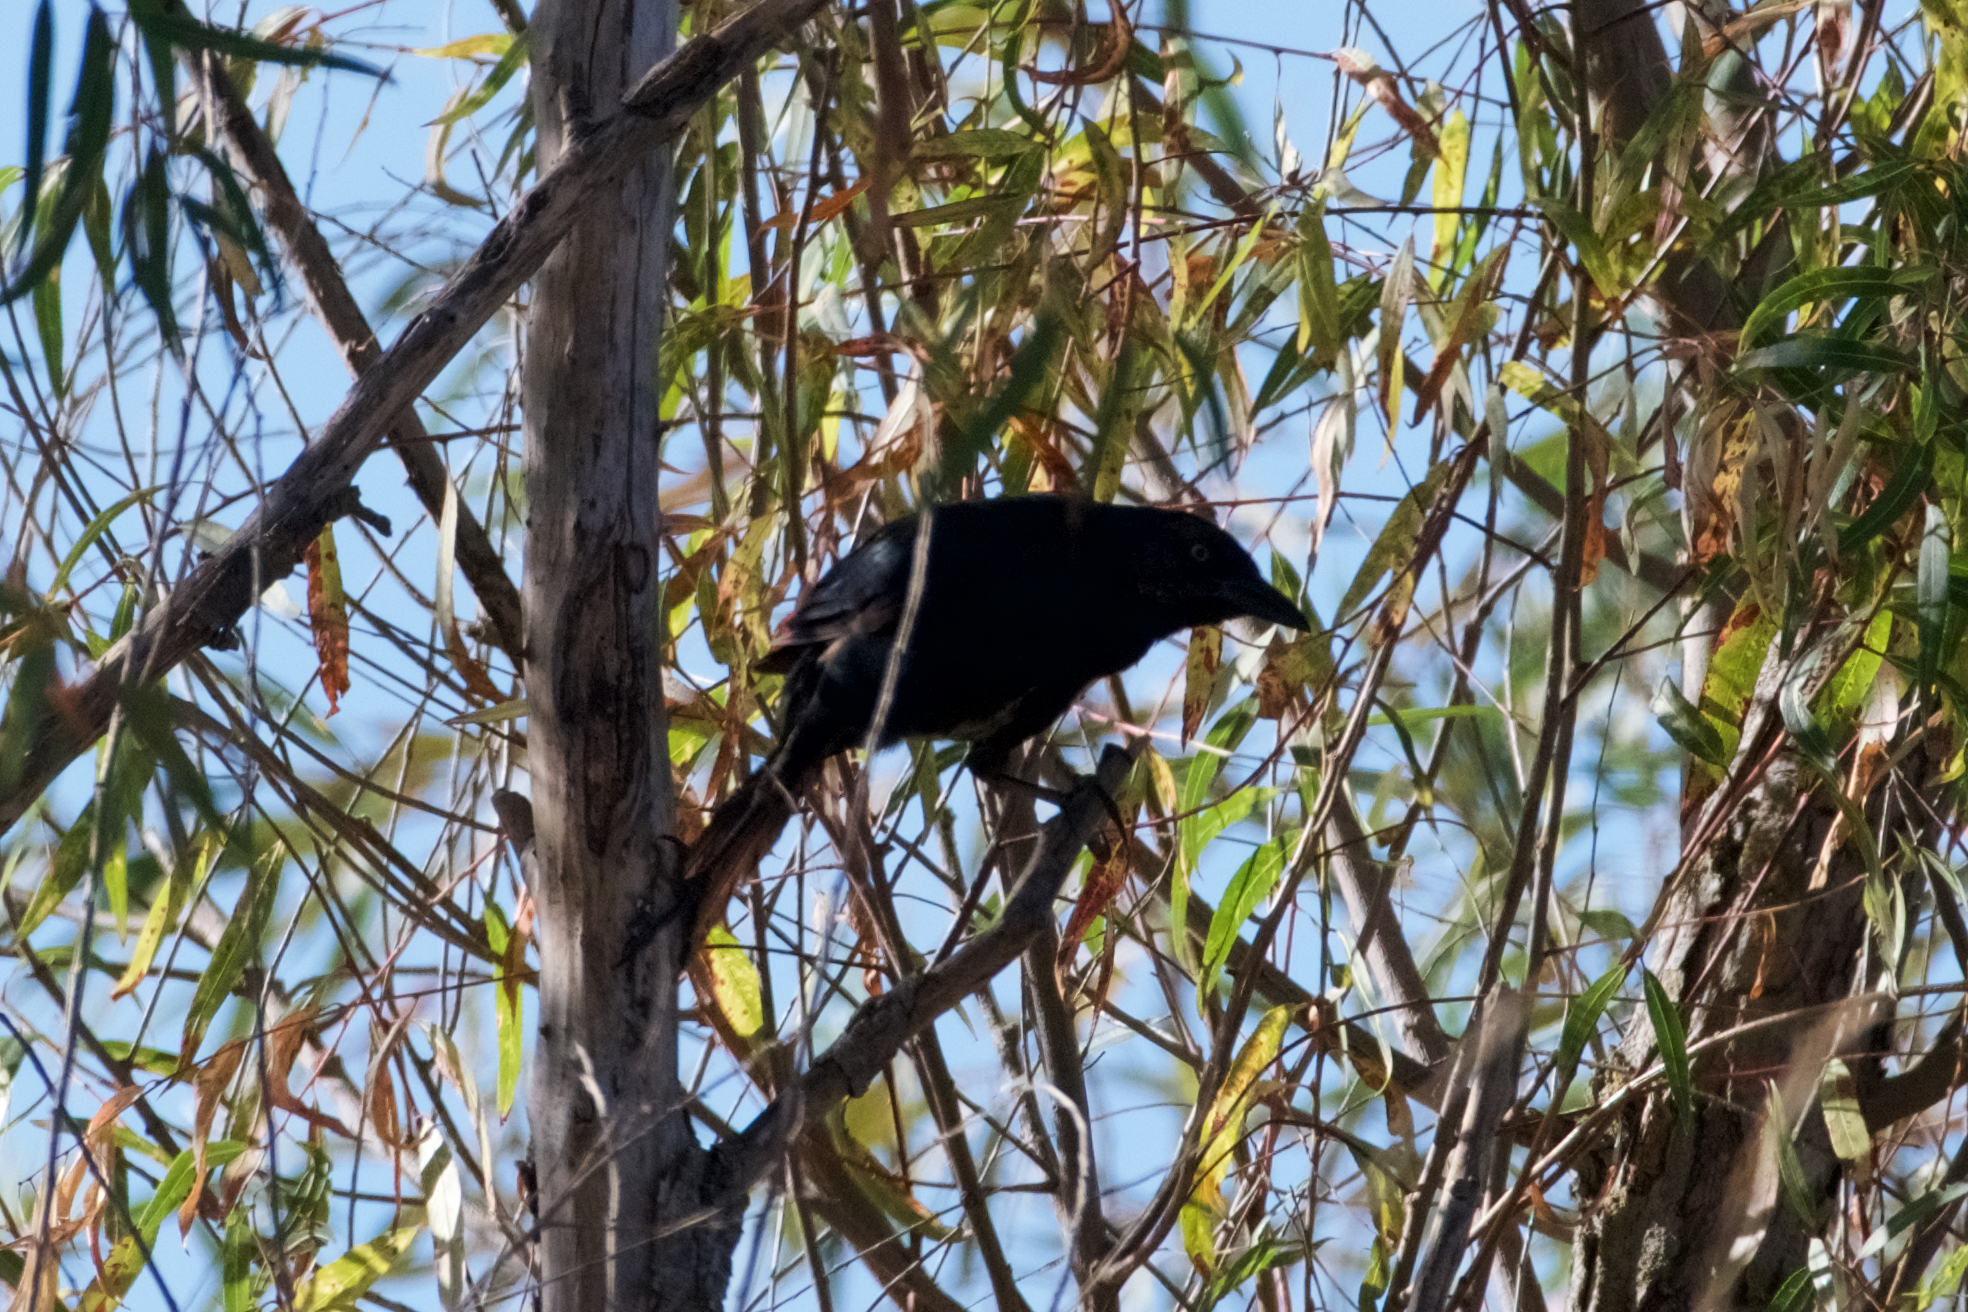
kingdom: Animalia
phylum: Chordata
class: Aves
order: Passeriformes
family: Icteridae
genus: Quiscalus
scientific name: Quiscalus mexicanus
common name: Great-tailed grackle
